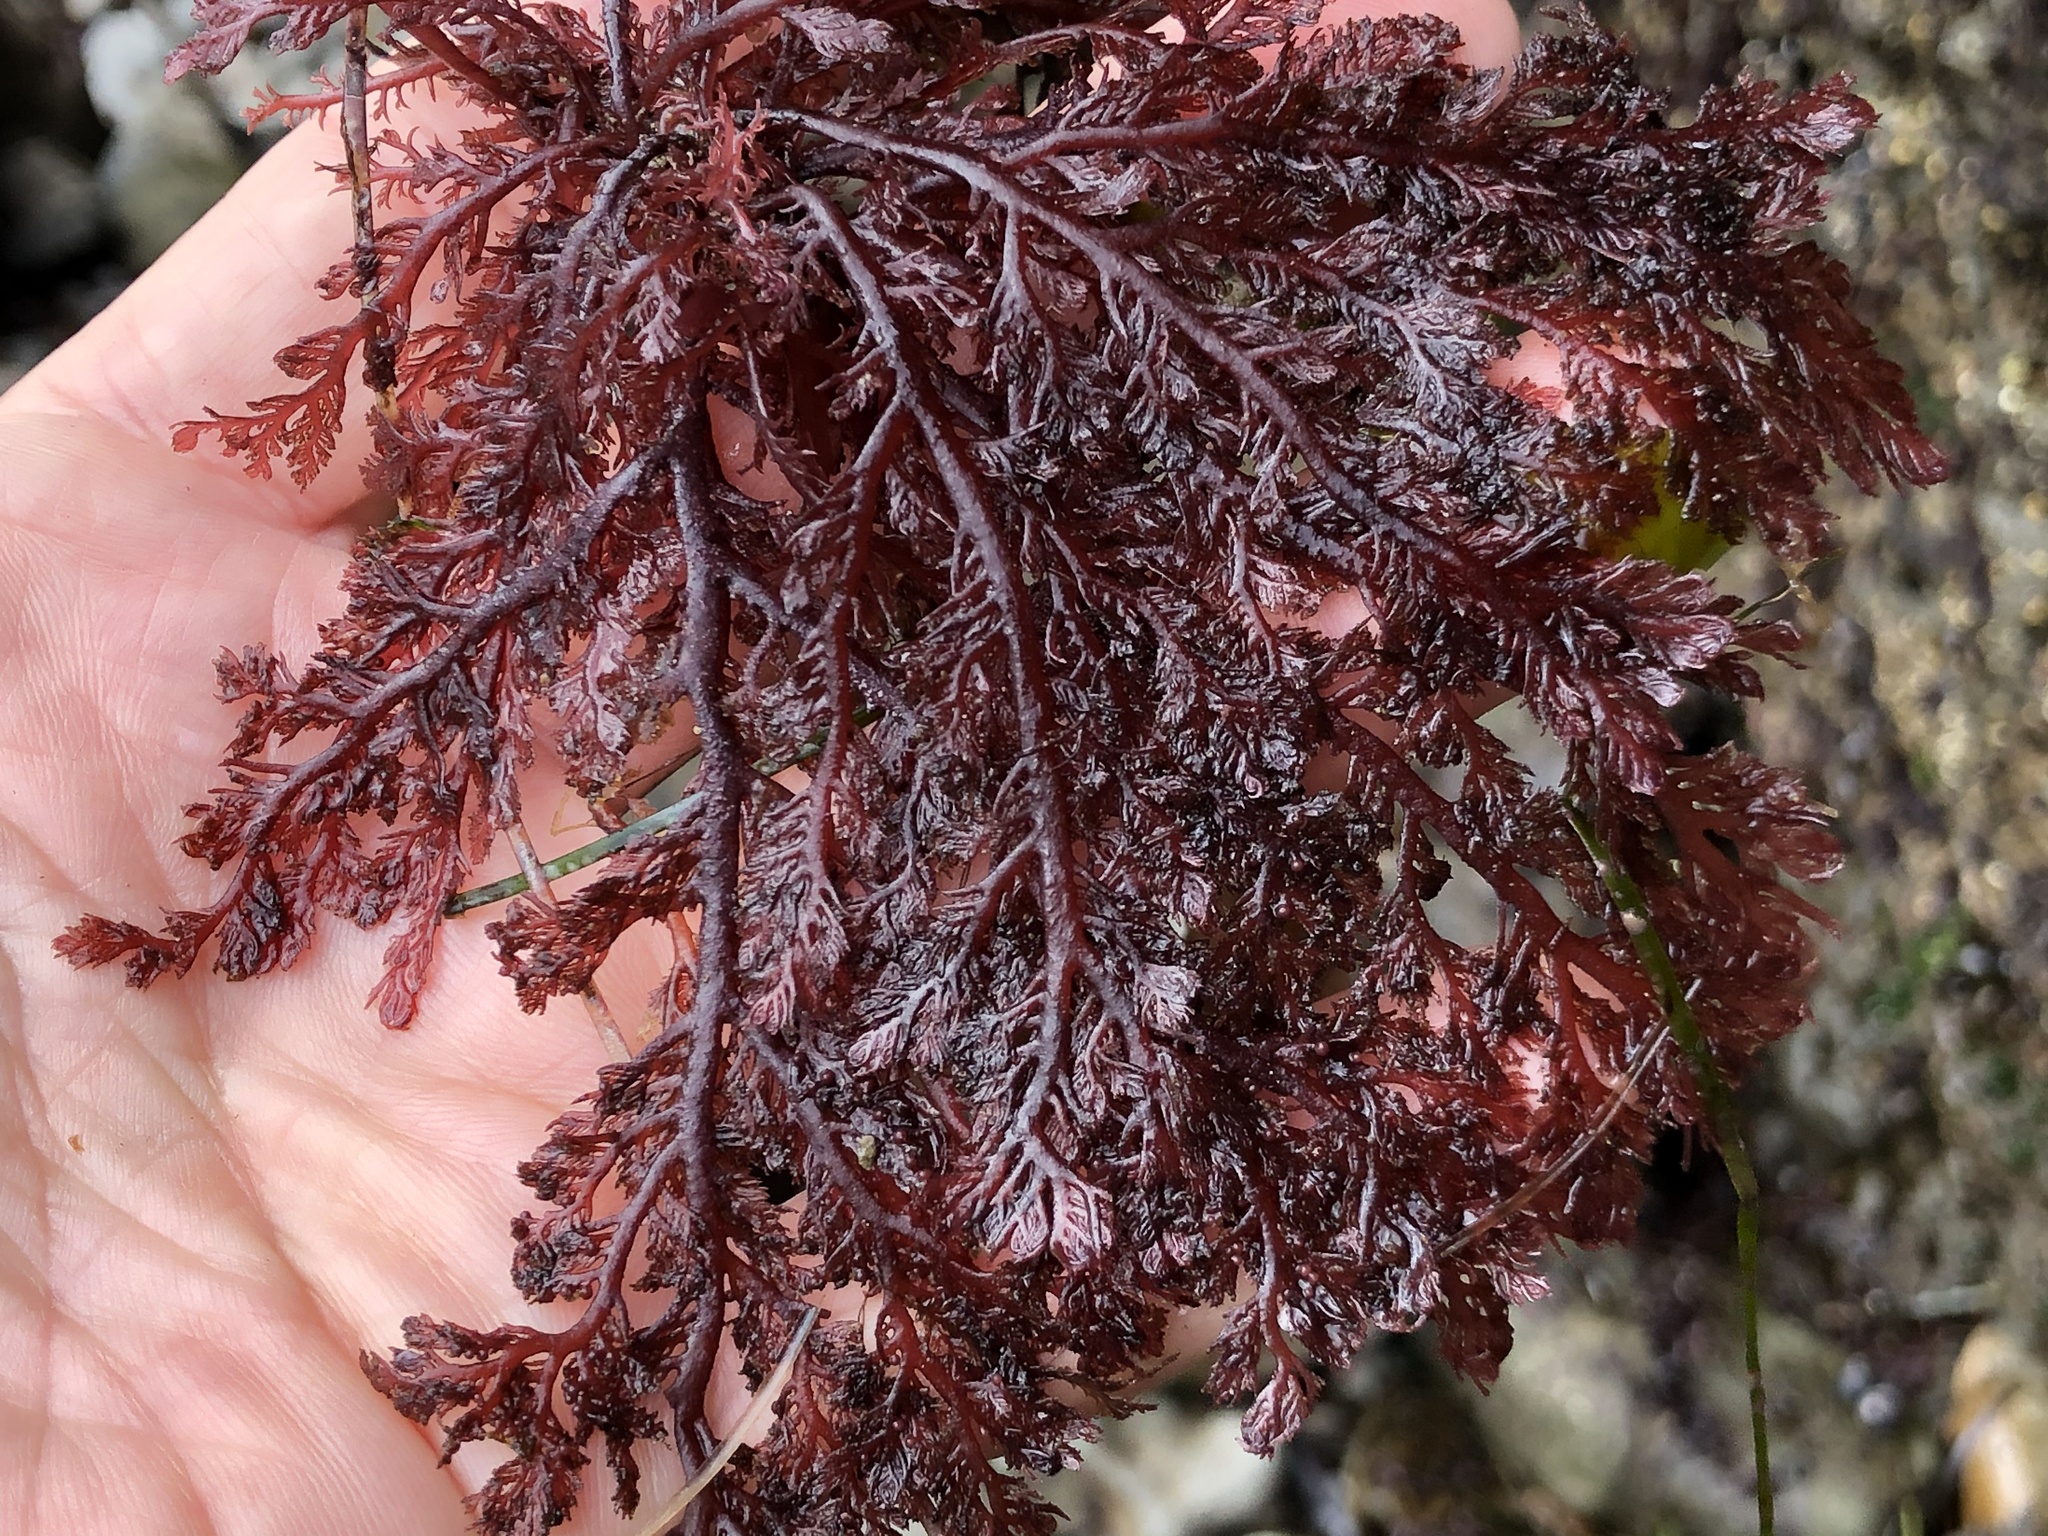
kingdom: Plantae
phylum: Rhodophyta
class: Florideophyceae
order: Plocamiales
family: Plocamiaceae
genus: Plocamium
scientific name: Plocamium cartilagineum
